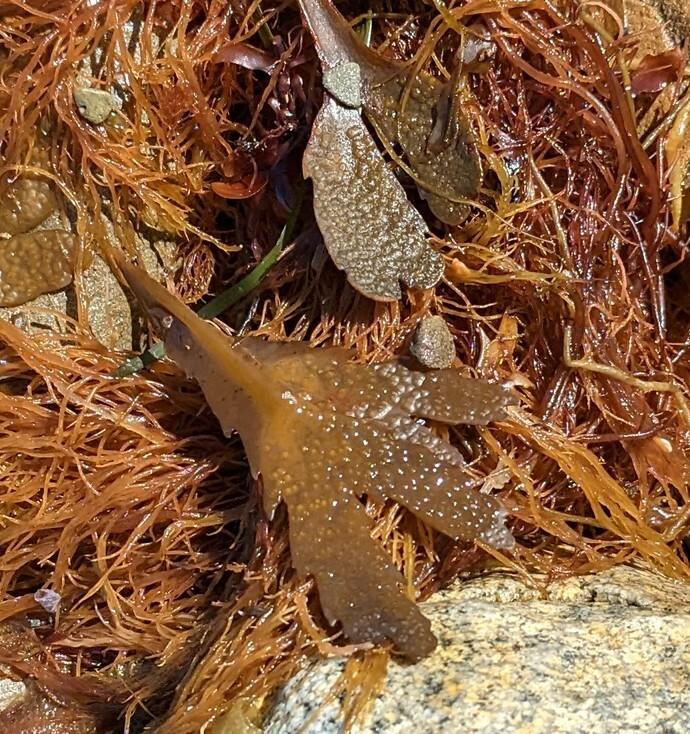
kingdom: Chromista
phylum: Ochrophyta
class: Phaeophyceae
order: Fucales
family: Fucaceae
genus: Fucus
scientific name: Fucus serratus
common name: Toothed wrack
